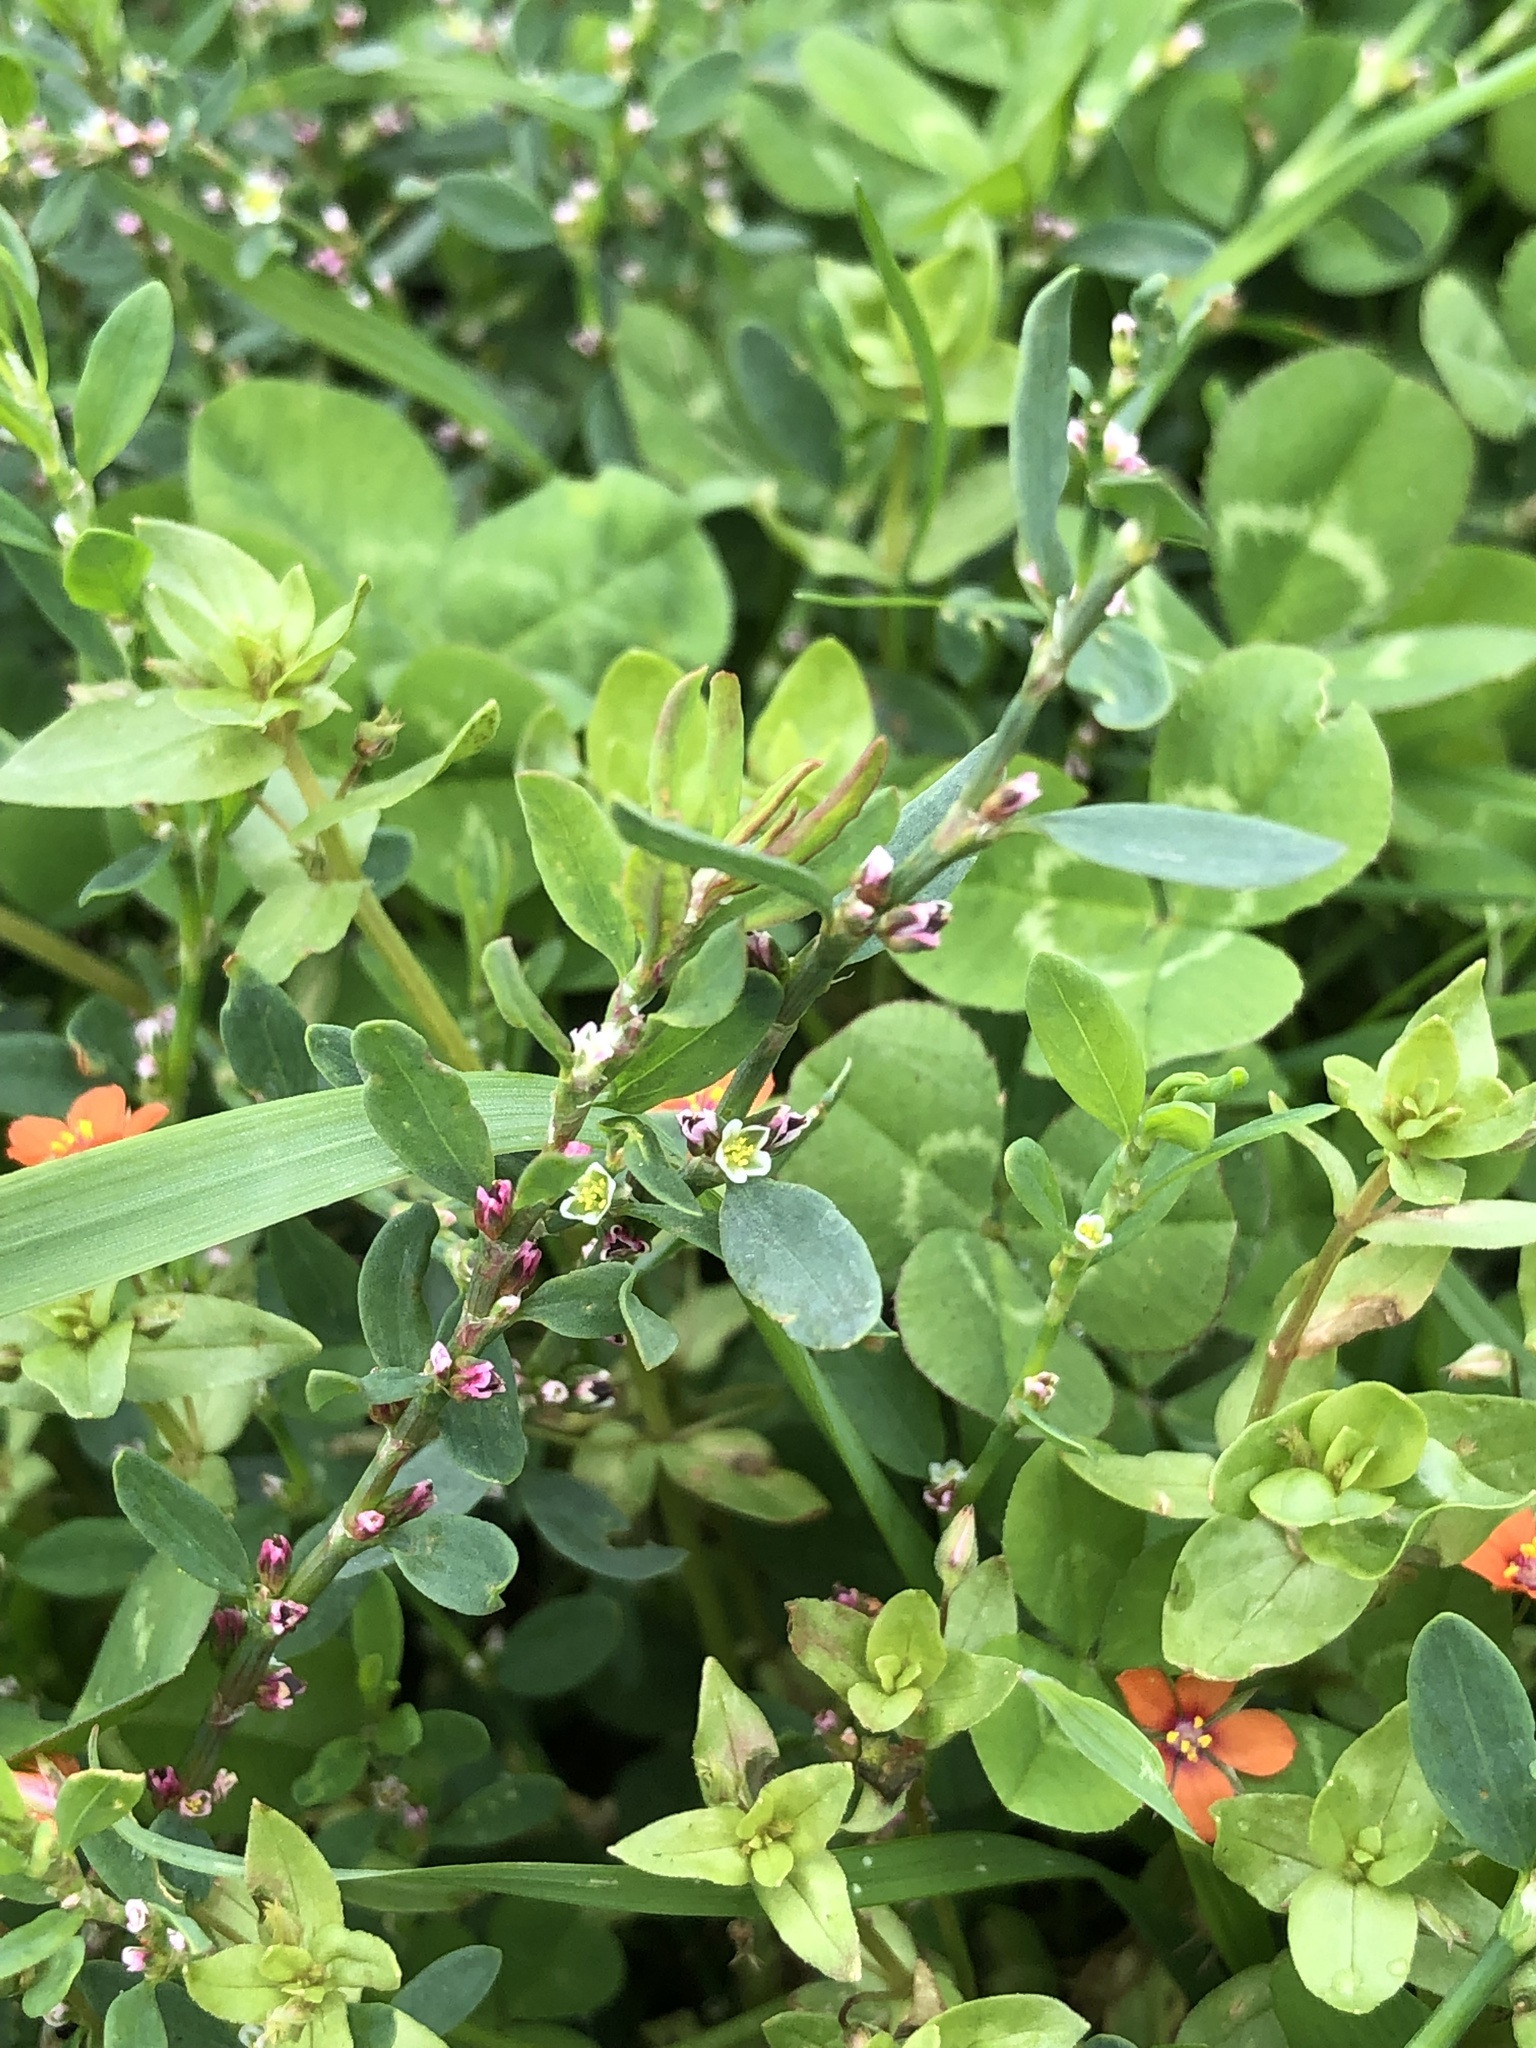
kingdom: Plantae
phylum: Tracheophyta
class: Magnoliopsida
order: Caryophyllales
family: Polygonaceae
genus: Polygonum
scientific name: Polygonum aviculare
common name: Prostrate knotweed
